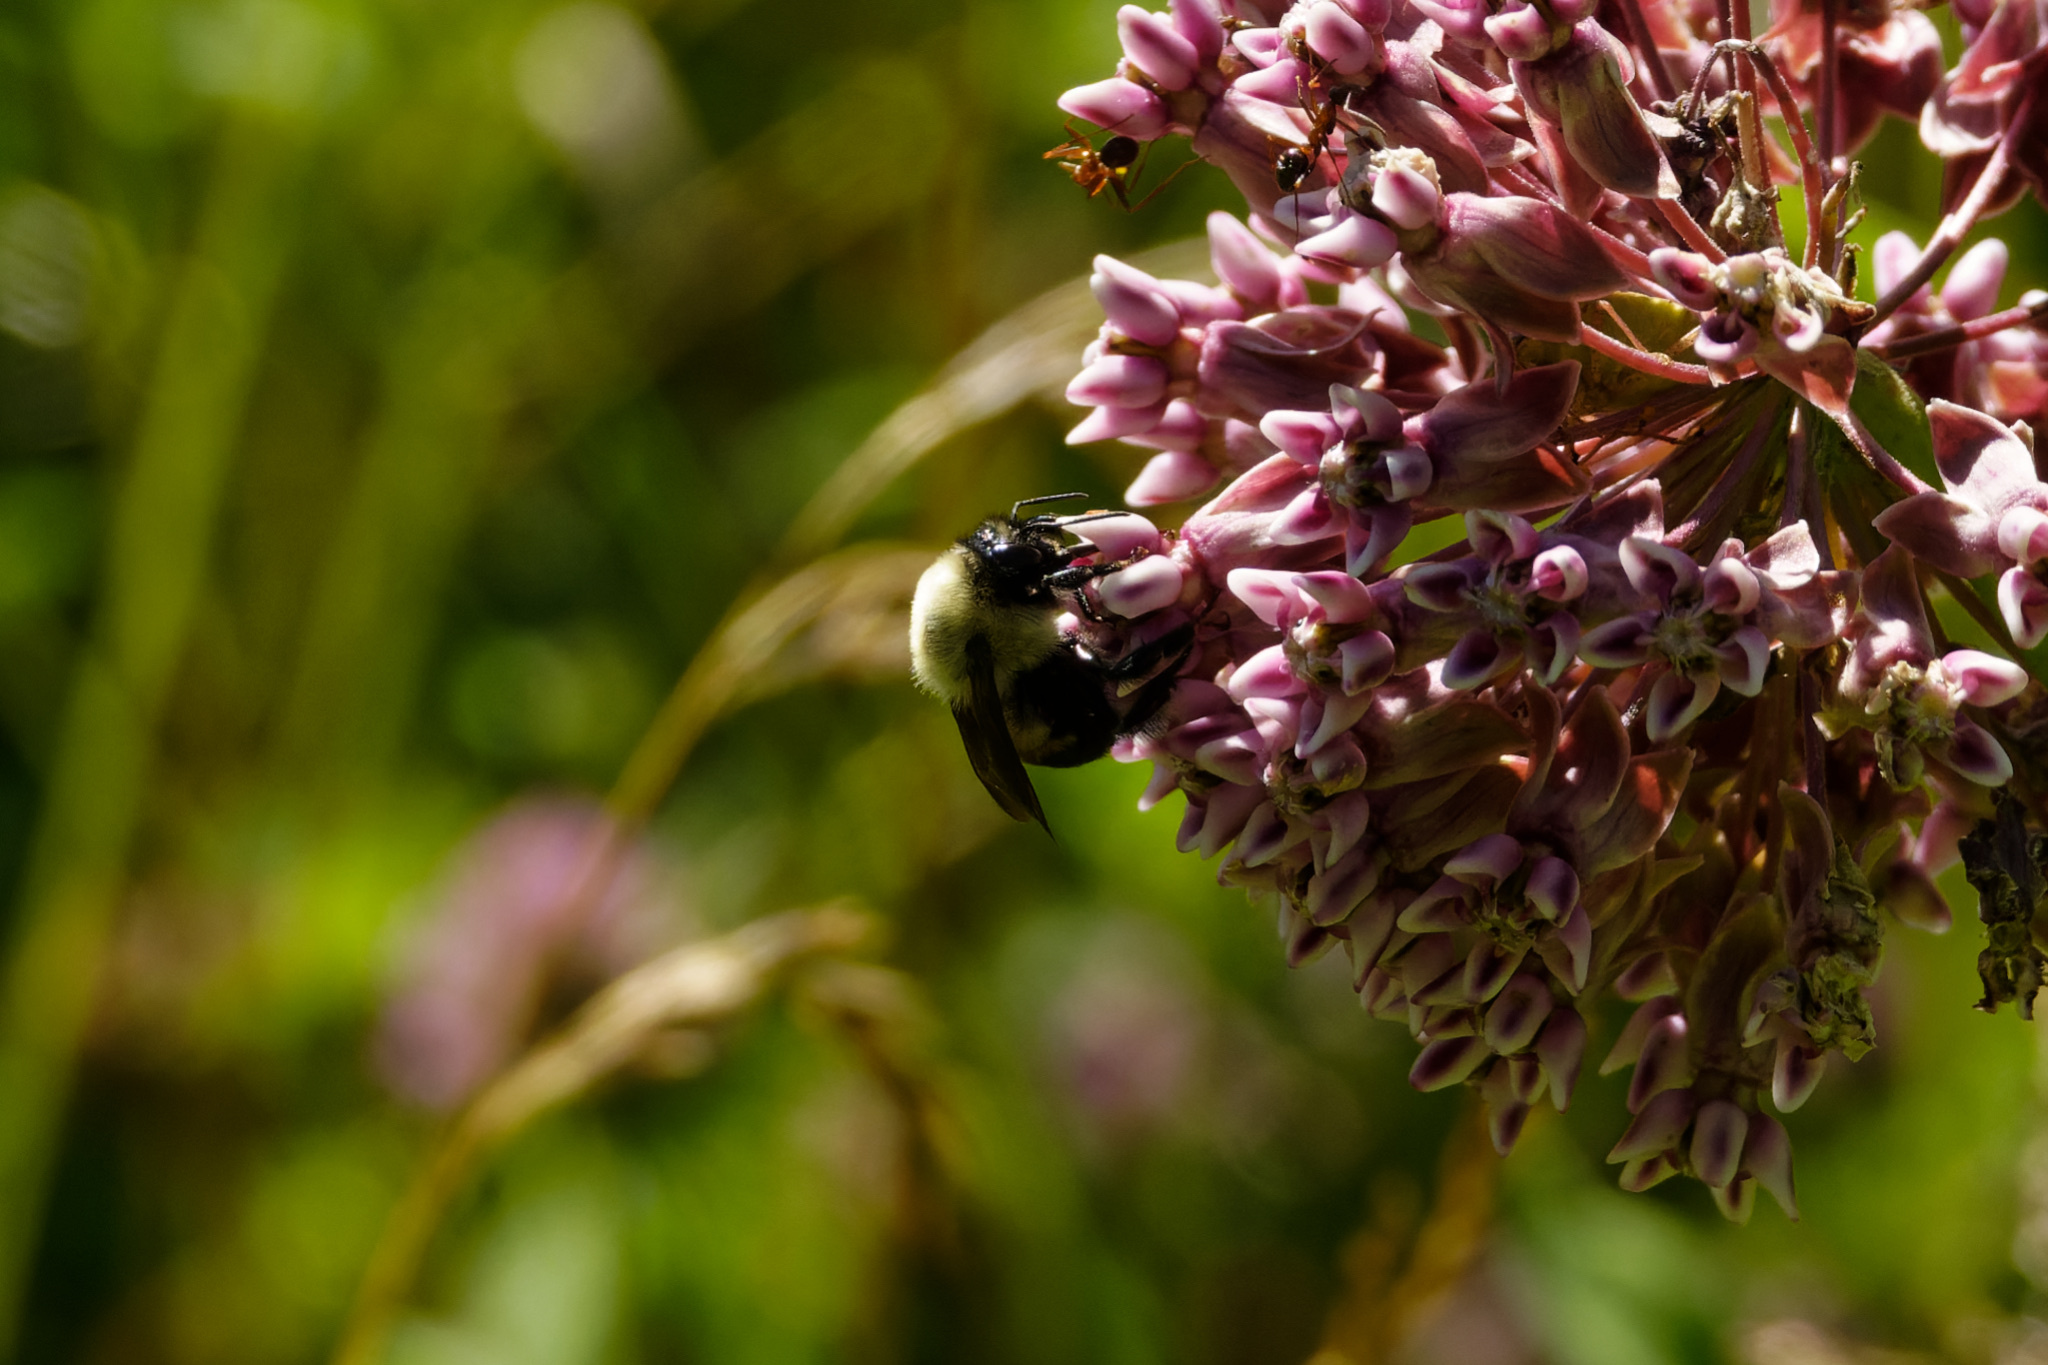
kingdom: Animalia
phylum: Arthropoda
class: Insecta
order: Hymenoptera
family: Apidae
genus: Bombus
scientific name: Bombus griseocollis
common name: Brown-belted bumble bee
